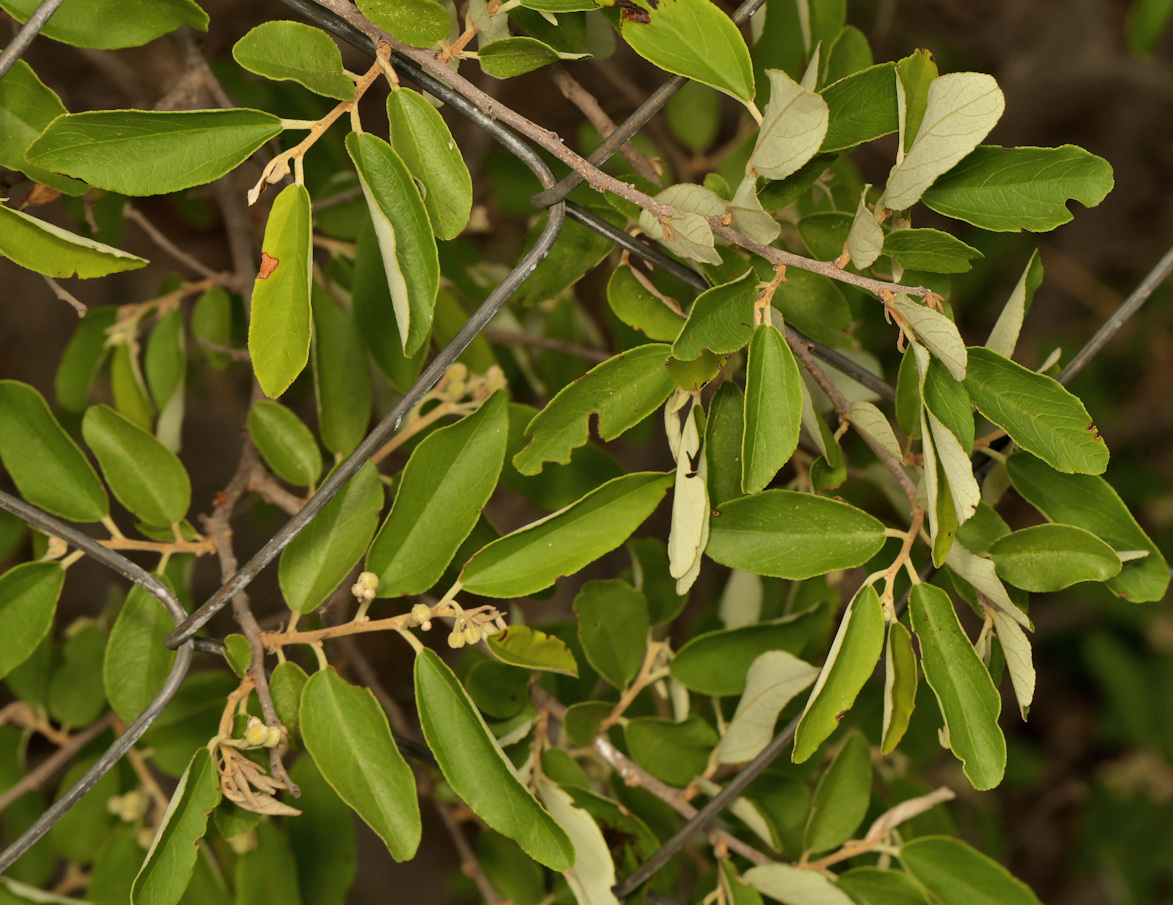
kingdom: Plantae
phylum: Tracheophyta
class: Magnoliopsida
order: Malvales
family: Malvaceae
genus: Grewia
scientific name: Grewia bicolor
